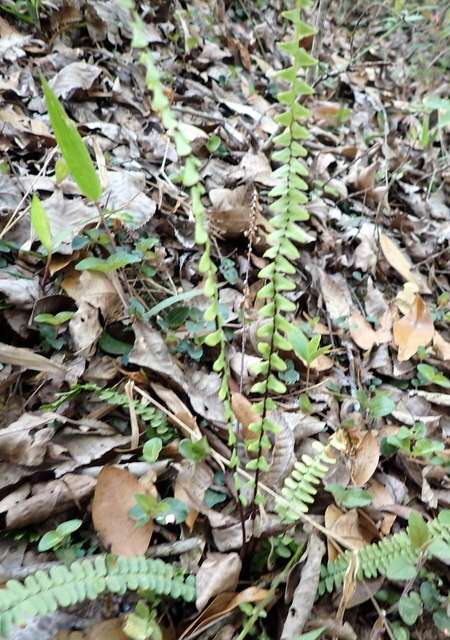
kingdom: Plantae
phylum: Tracheophyta
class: Polypodiopsida
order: Polypodiales
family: Aspleniaceae
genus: Asplenium
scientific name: Asplenium platyneuron
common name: Ebony spleenwort
